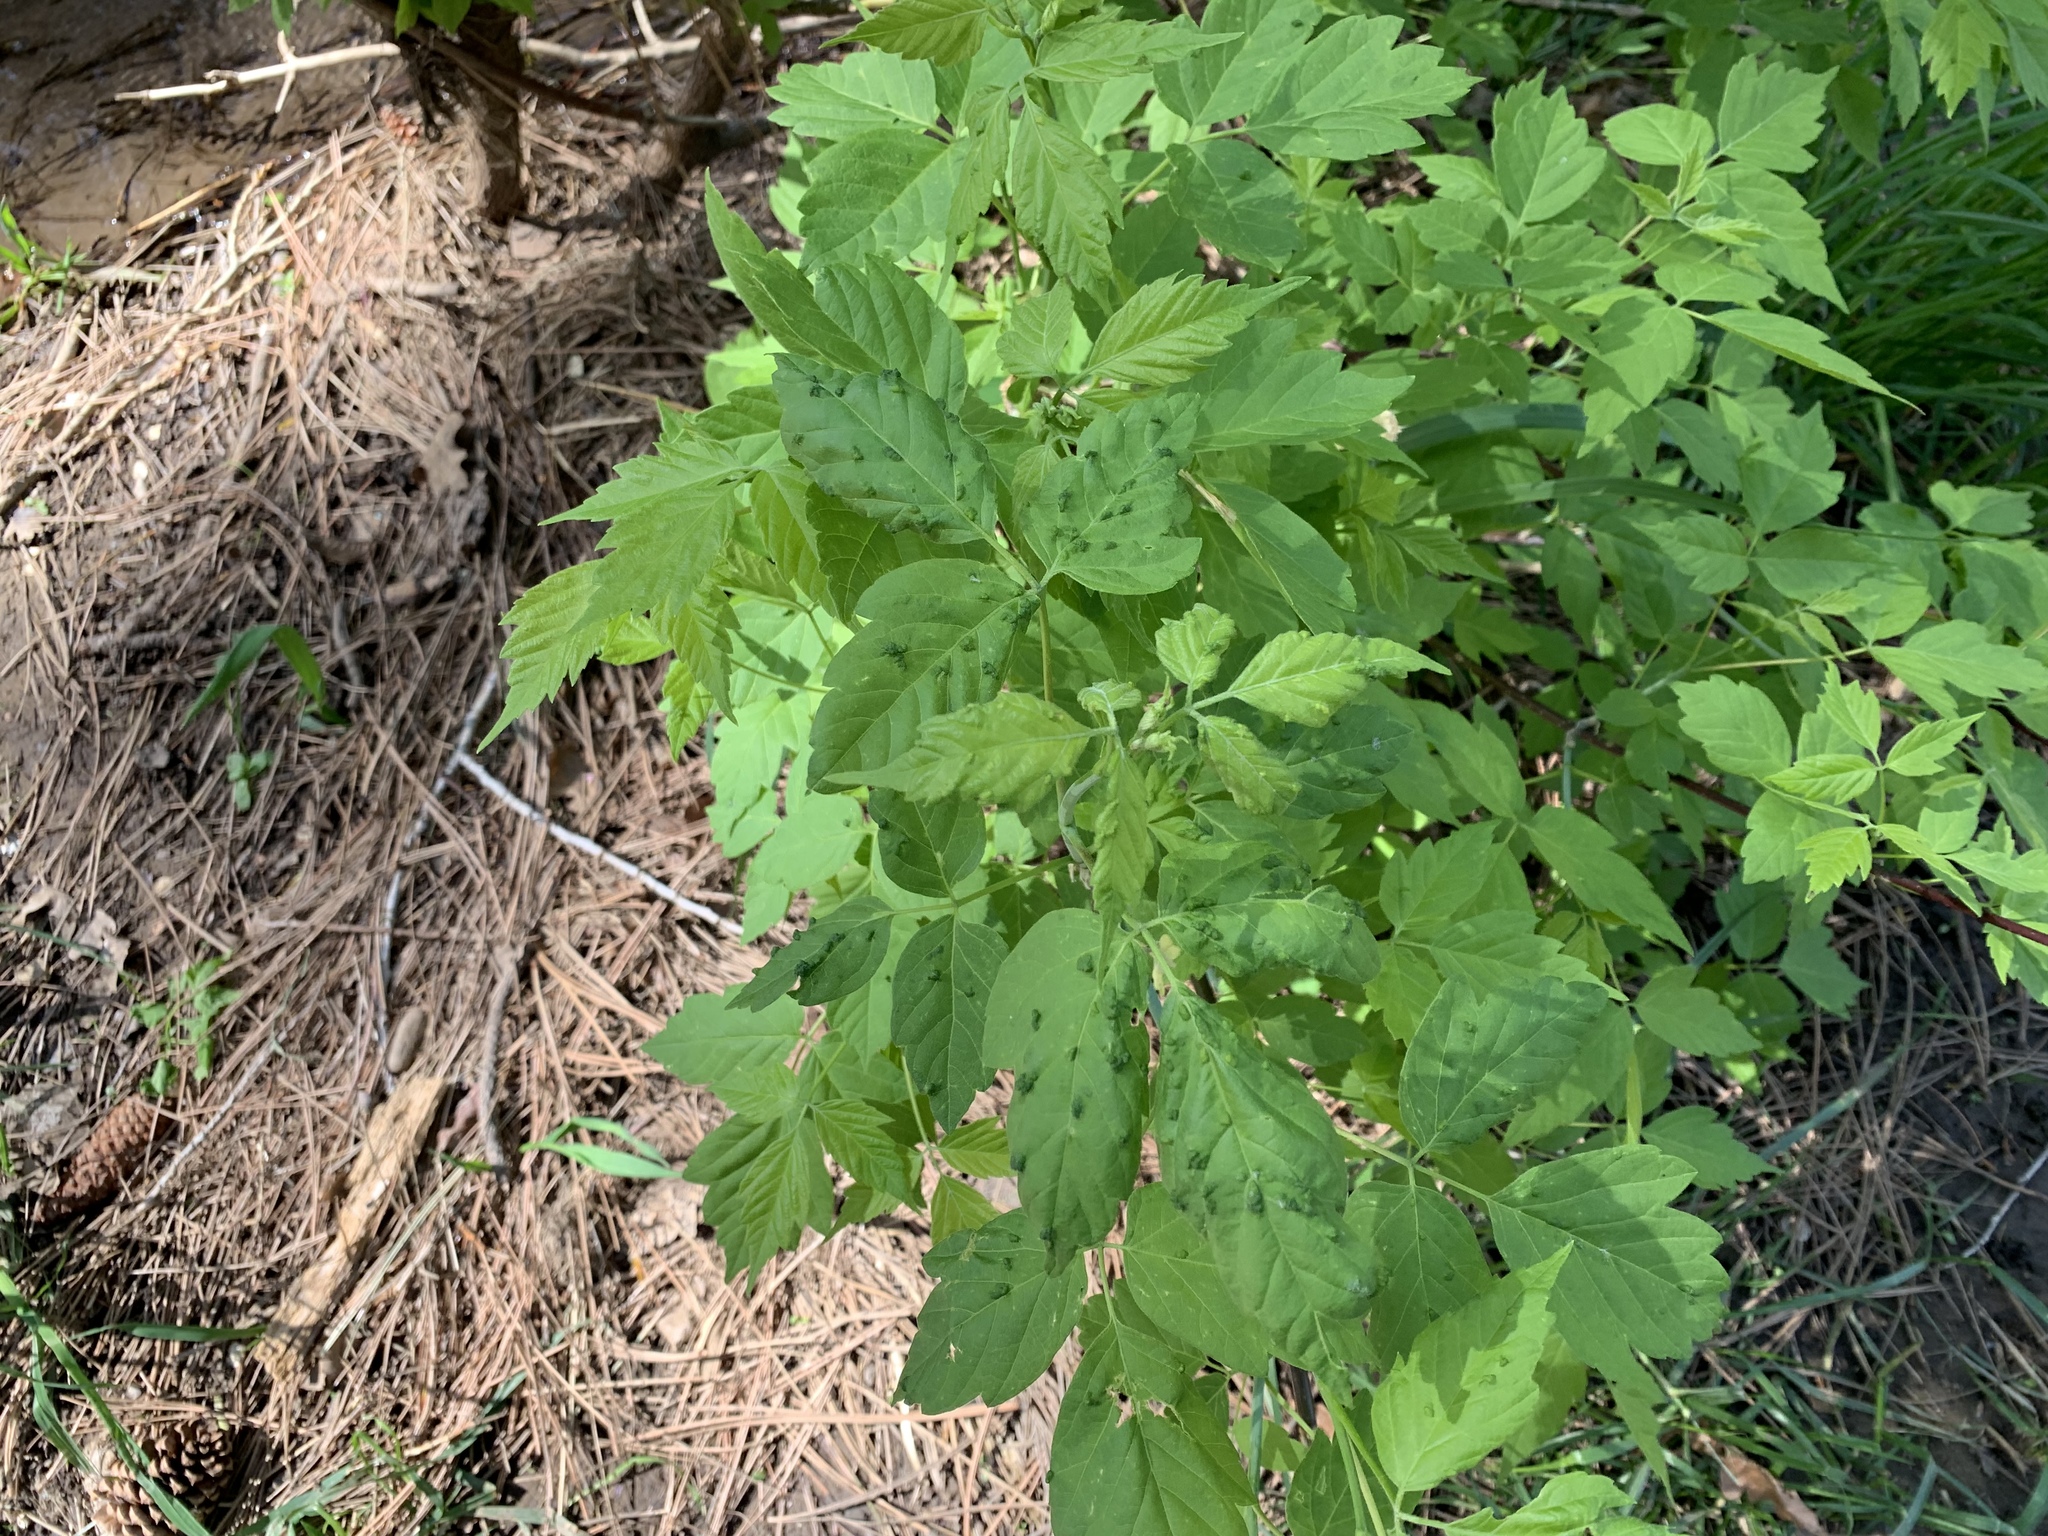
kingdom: Plantae
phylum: Tracheophyta
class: Magnoliopsida
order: Sapindales
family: Sapindaceae
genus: Acer
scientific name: Acer negundo
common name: Ashleaf maple
